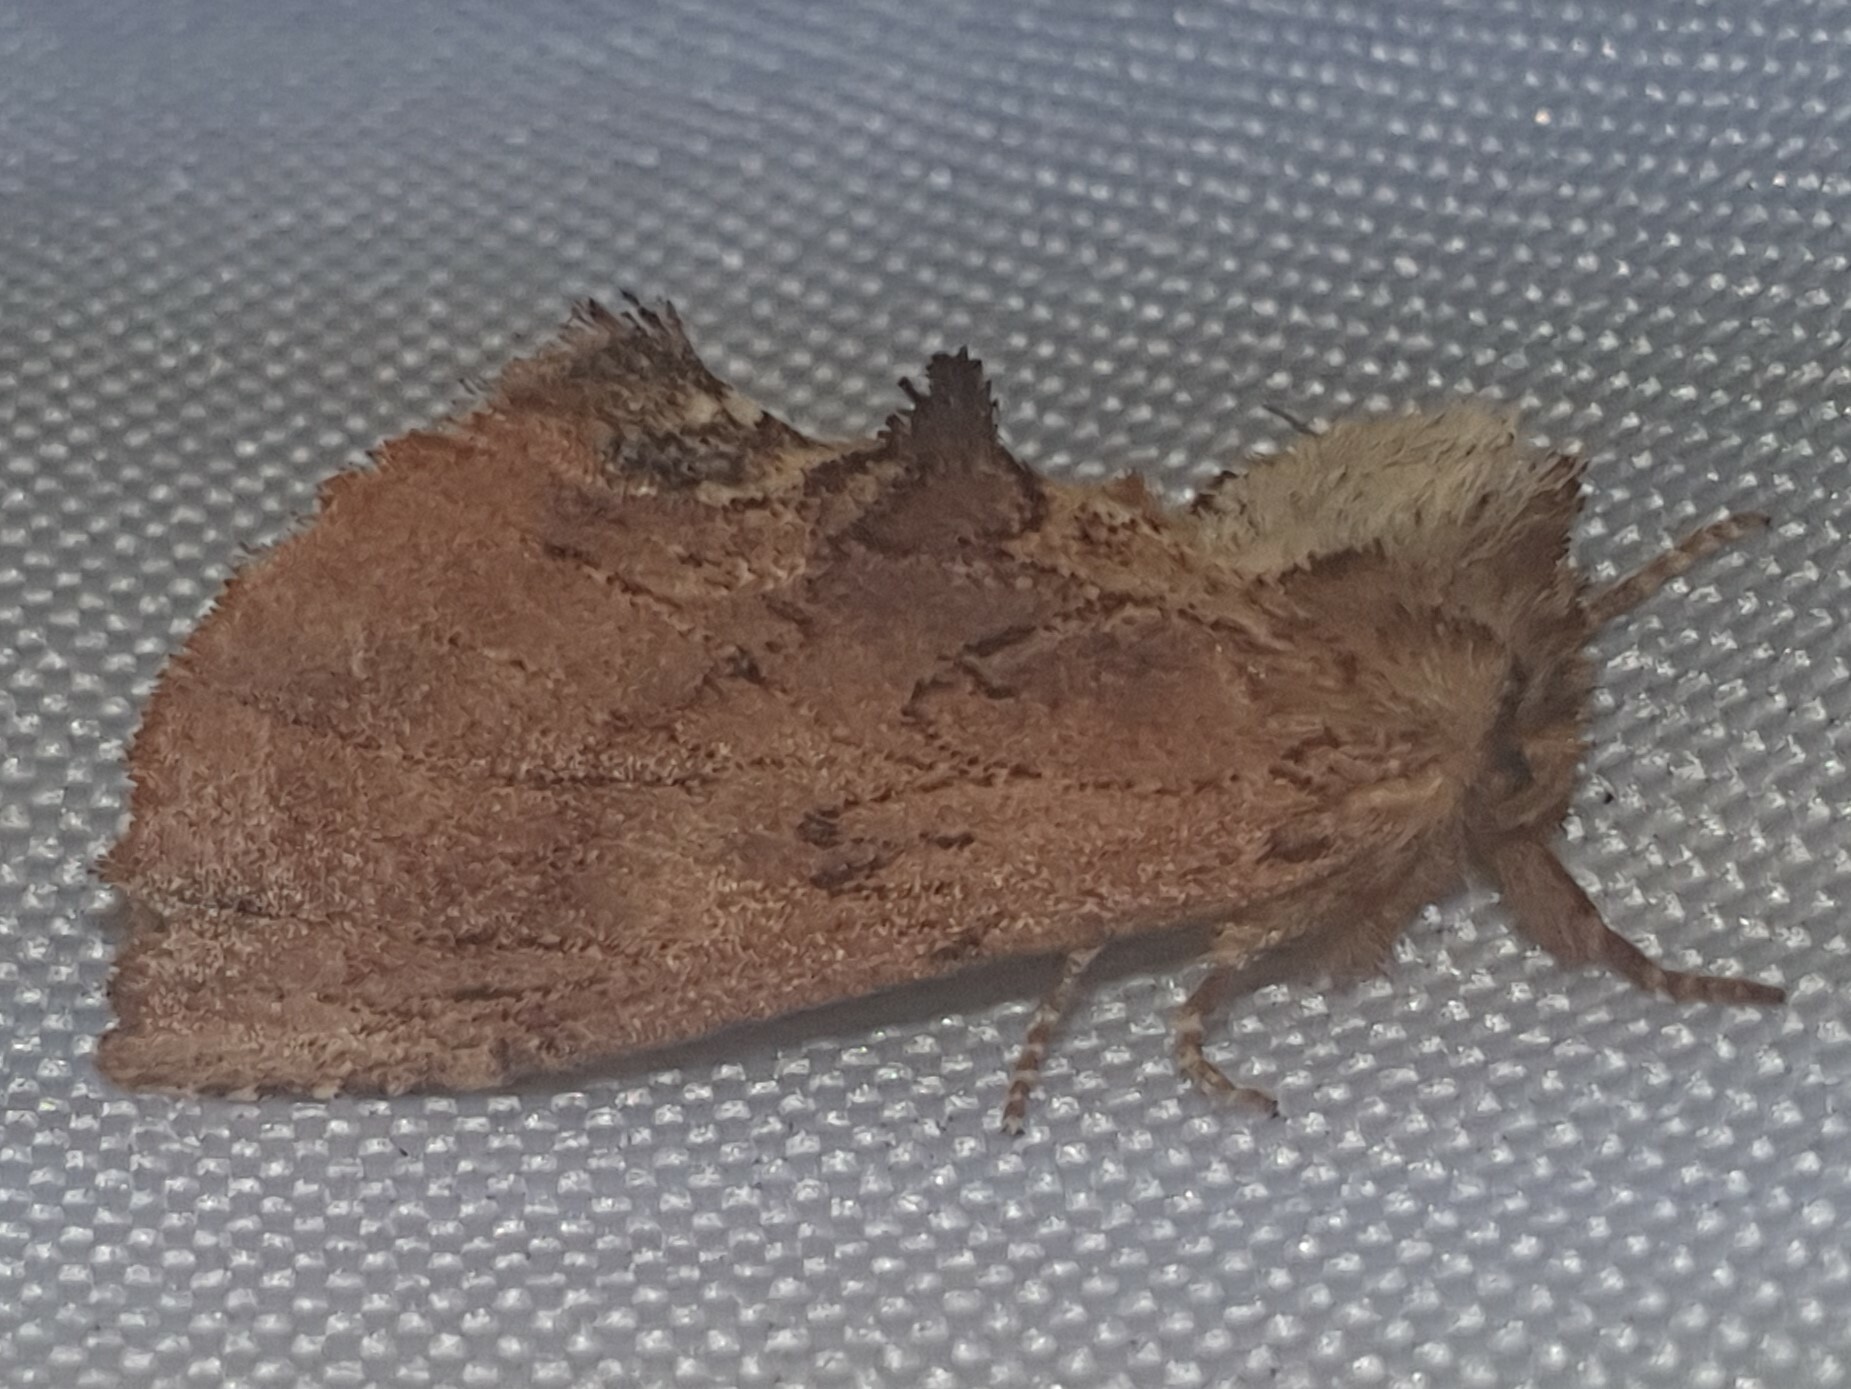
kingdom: Animalia
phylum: Arthropoda
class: Insecta
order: Lepidoptera
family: Notodontidae
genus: Ptilodon
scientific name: Ptilodon capucina
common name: Coxcomb prominent
